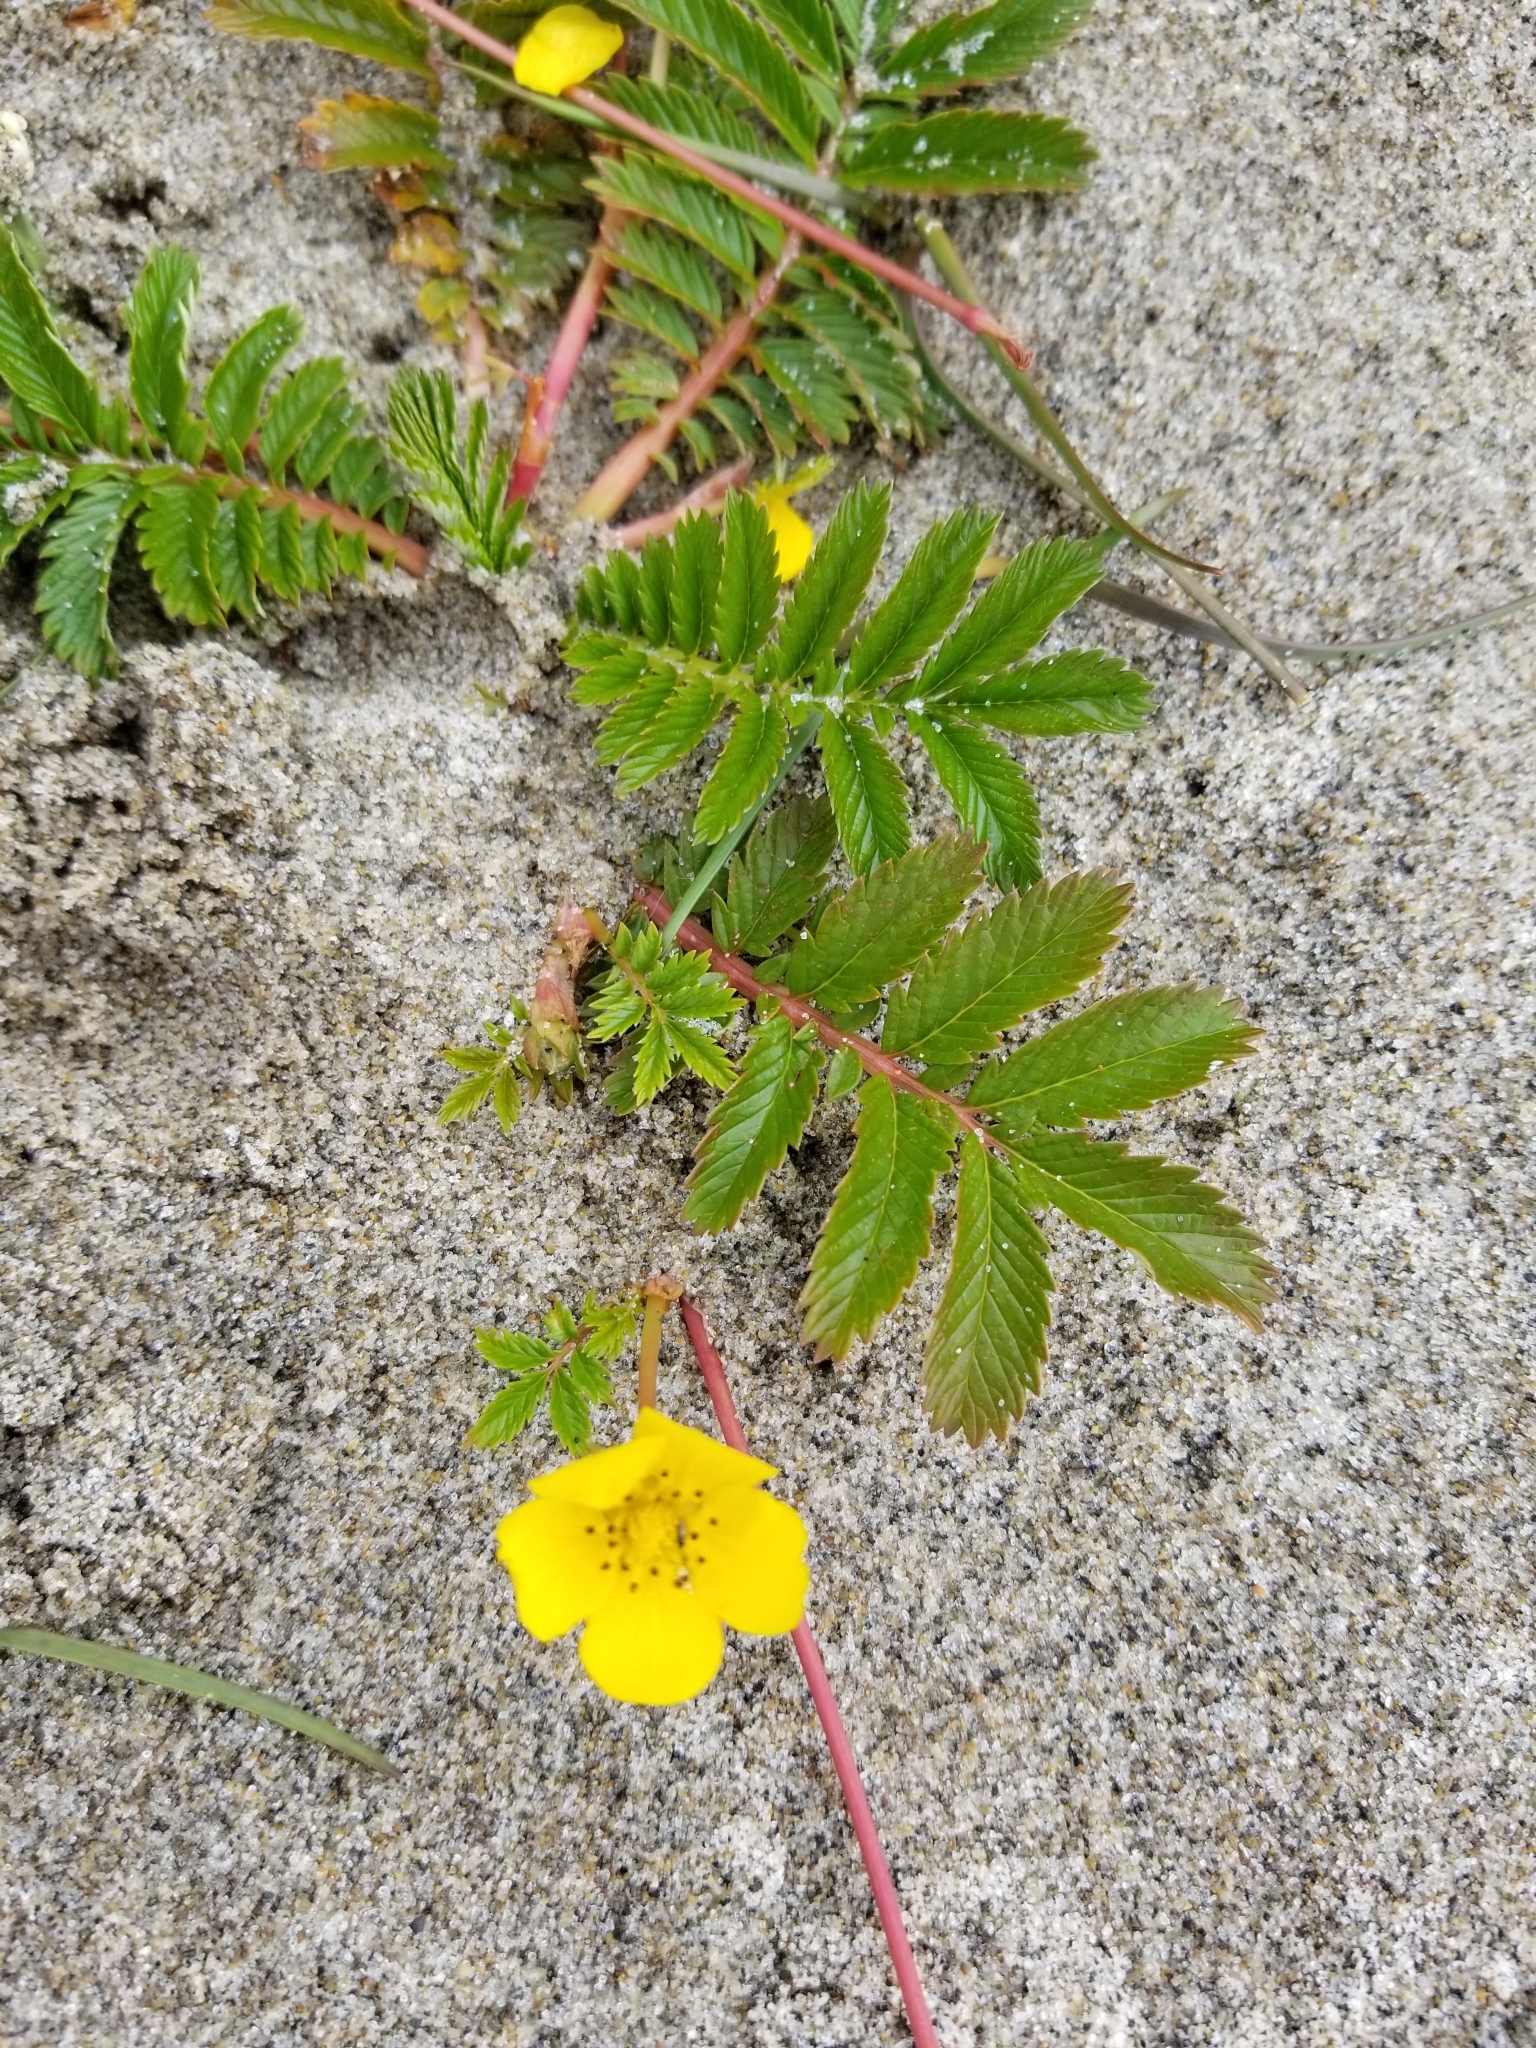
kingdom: Plantae
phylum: Tracheophyta
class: Magnoliopsida
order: Rosales
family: Rosaceae
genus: Argentina
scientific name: Argentina anserina
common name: Common silverweed
